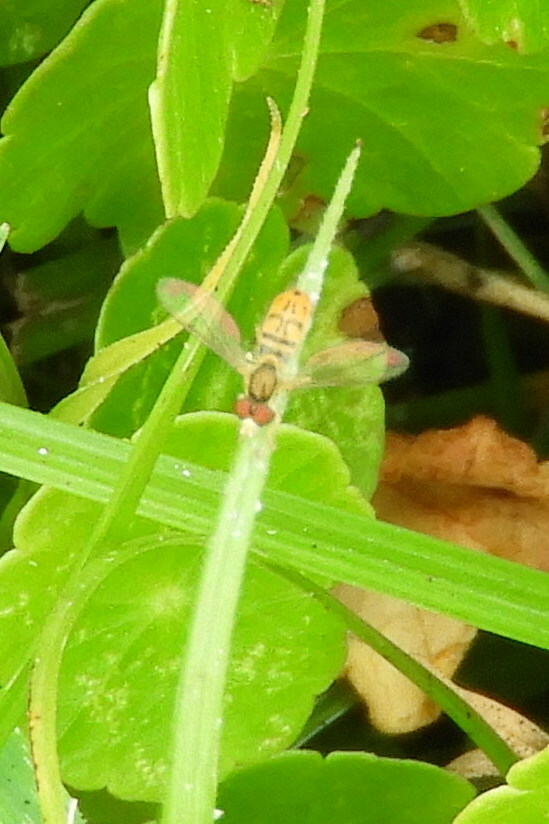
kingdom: Animalia
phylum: Arthropoda
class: Insecta
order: Diptera
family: Syrphidae
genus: Toxomerus
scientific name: Toxomerus marginatus
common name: Syrphid fly
